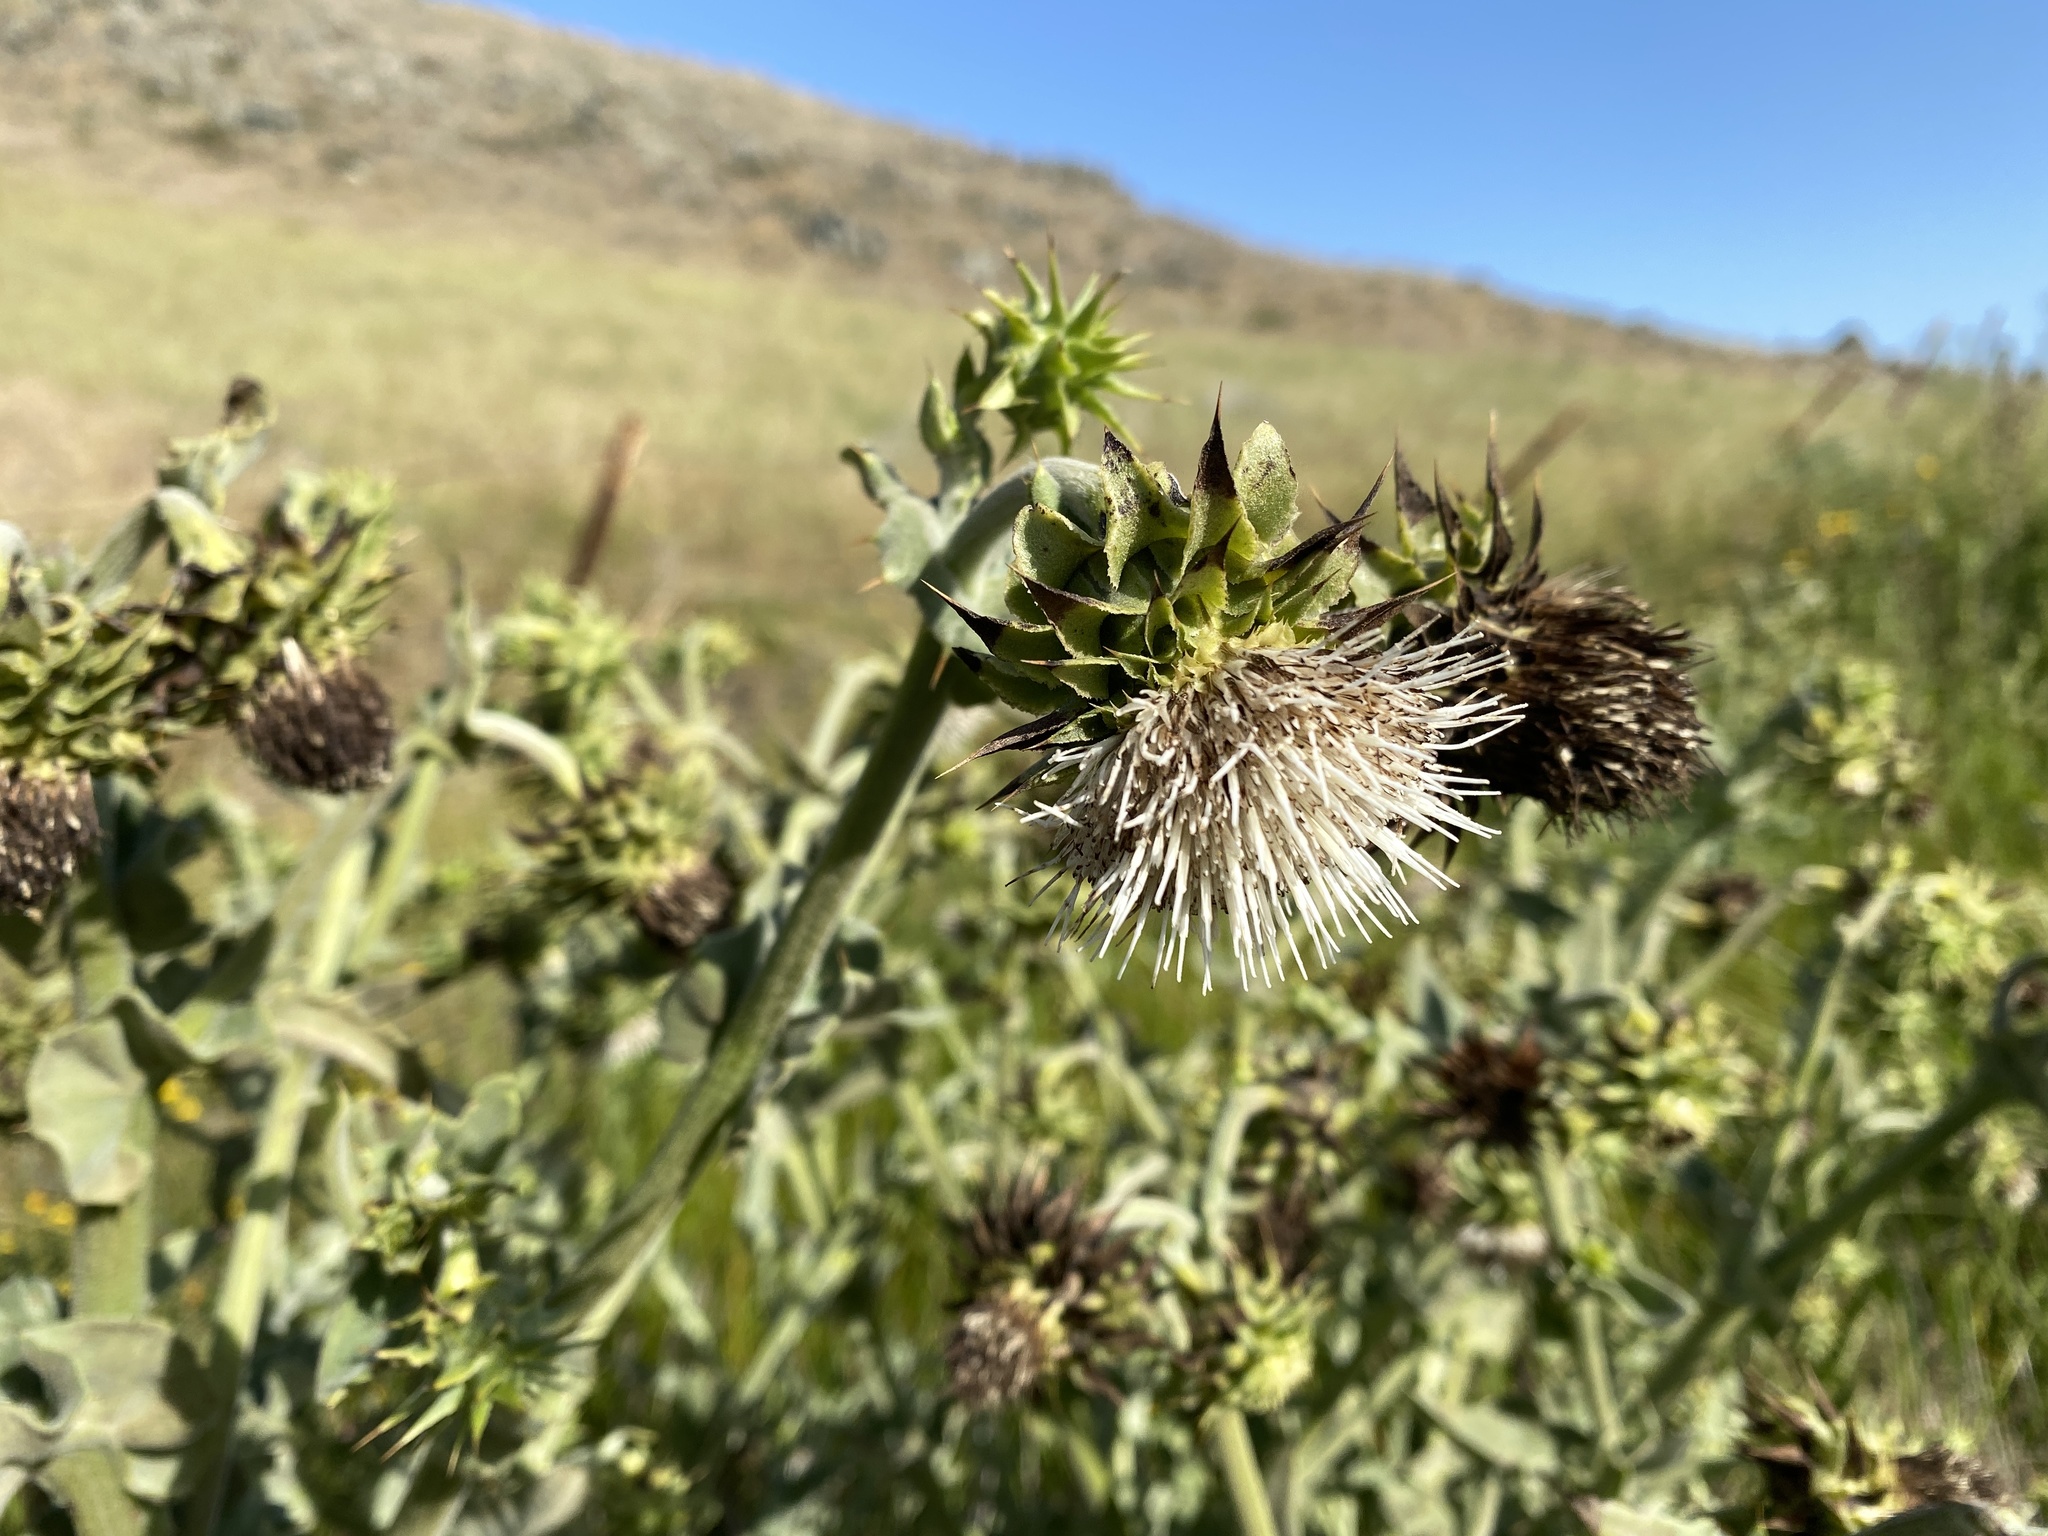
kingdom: Plantae
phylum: Tracheophyta
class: Magnoliopsida
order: Asterales
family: Asteraceae
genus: Cirsium
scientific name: Cirsium fontinale
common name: Fountain thistle
